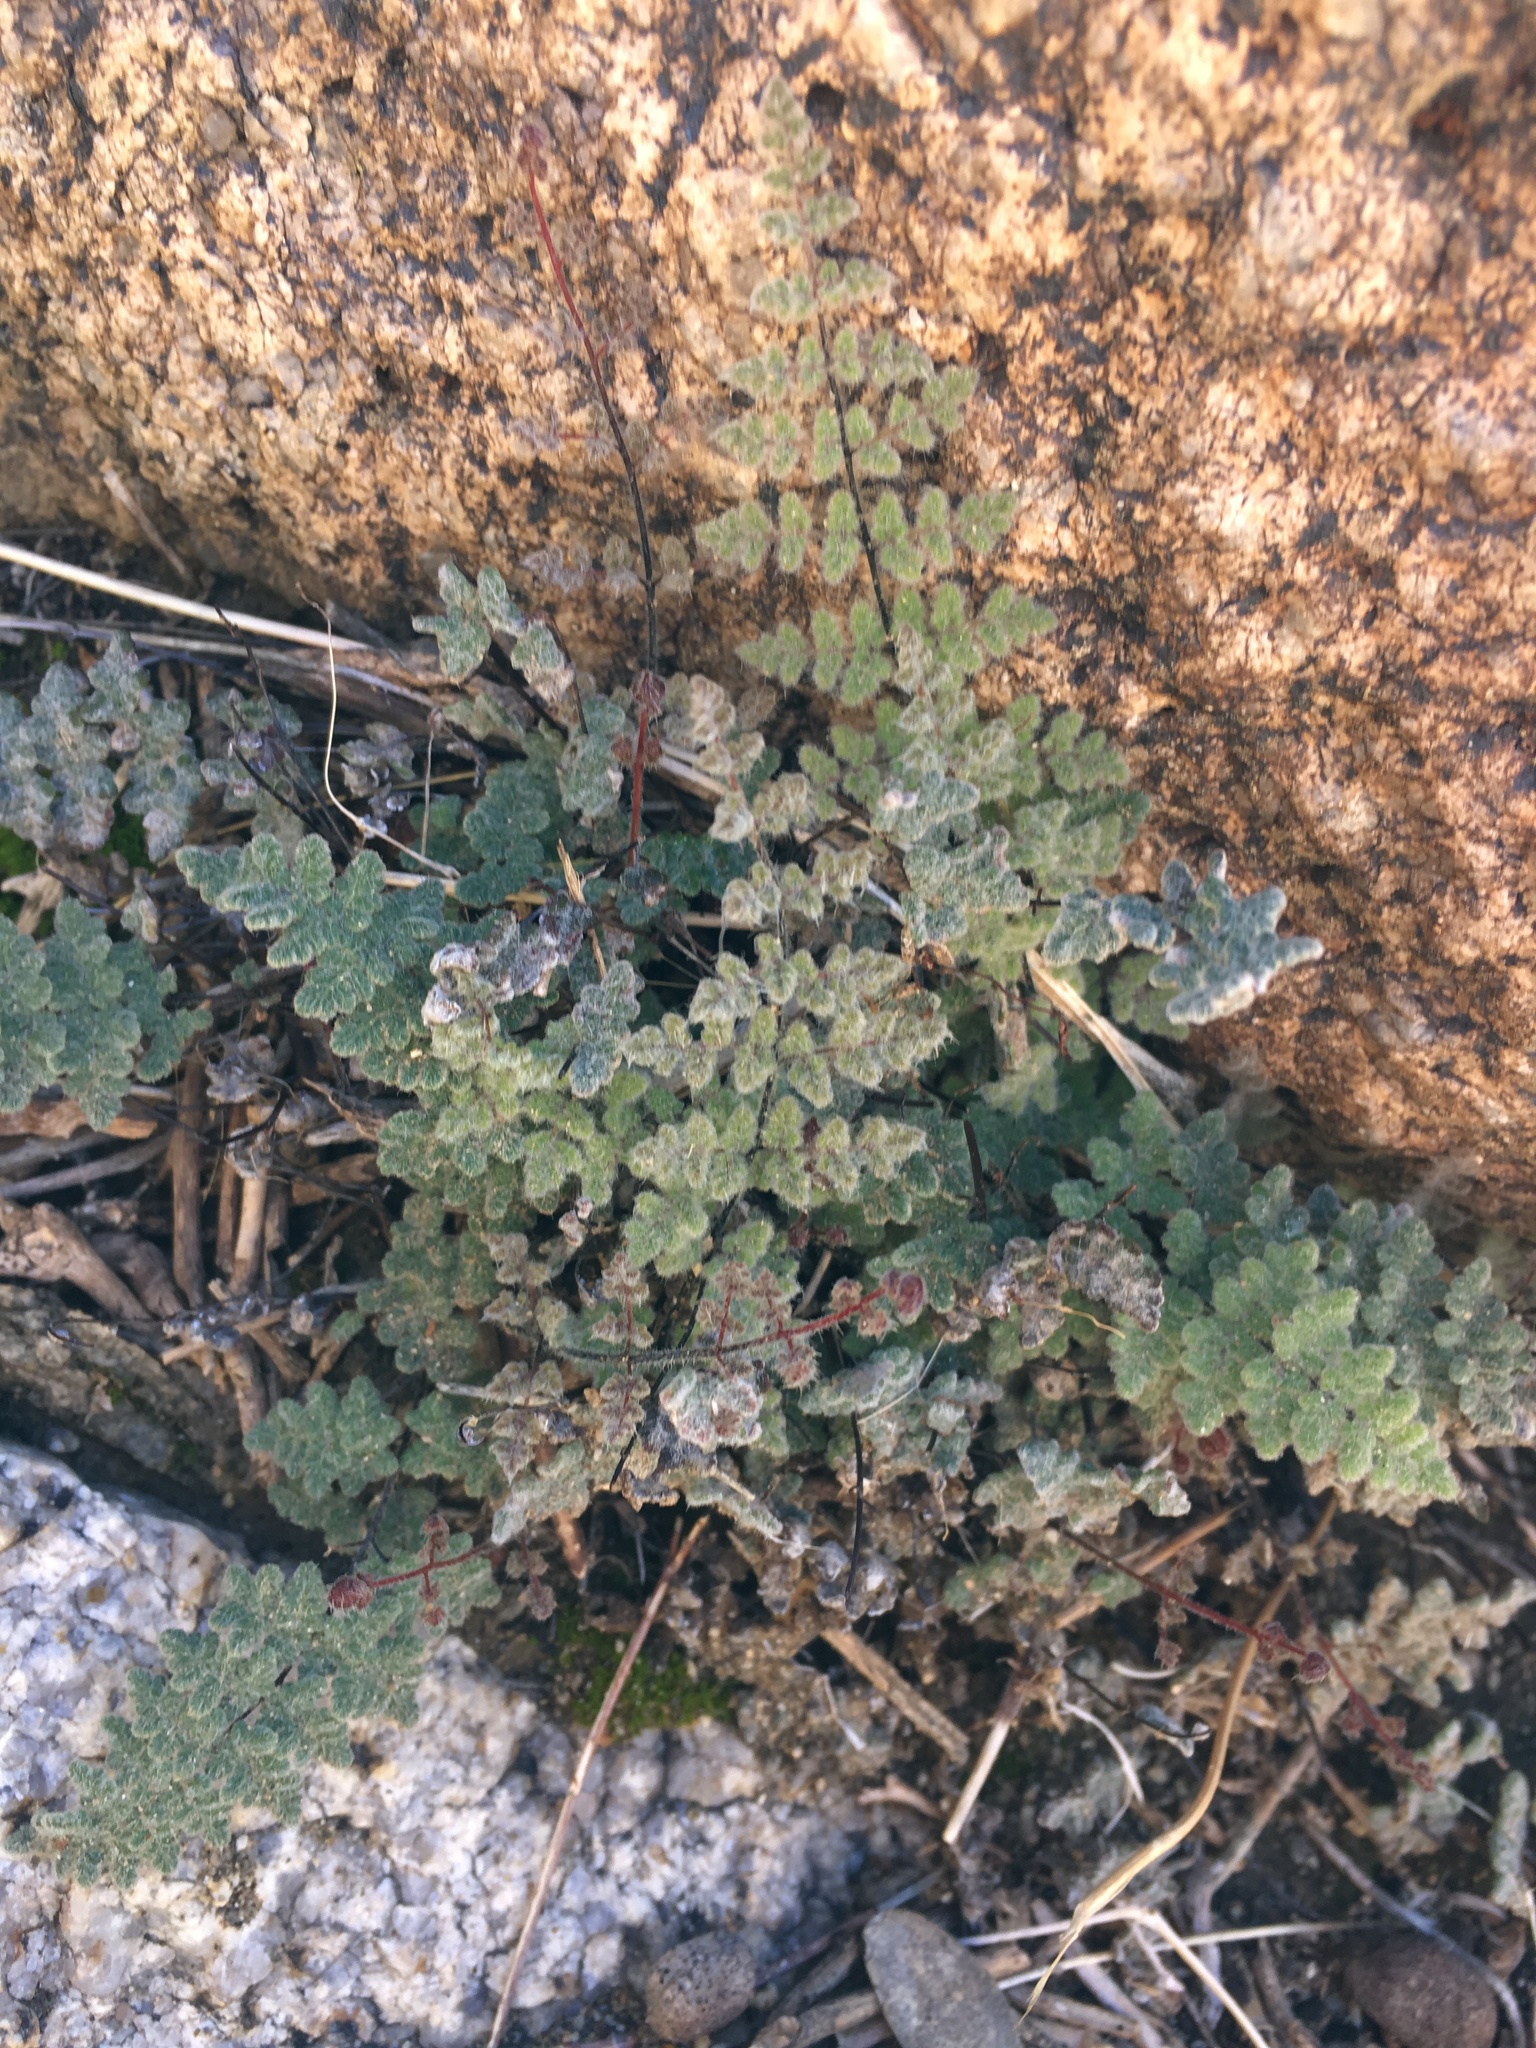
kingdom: Plantae
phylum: Tracheophyta
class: Polypodiopsida
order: Polypodiales
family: Pteridaceae
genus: Myriopteris
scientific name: Myriopteris parryi
